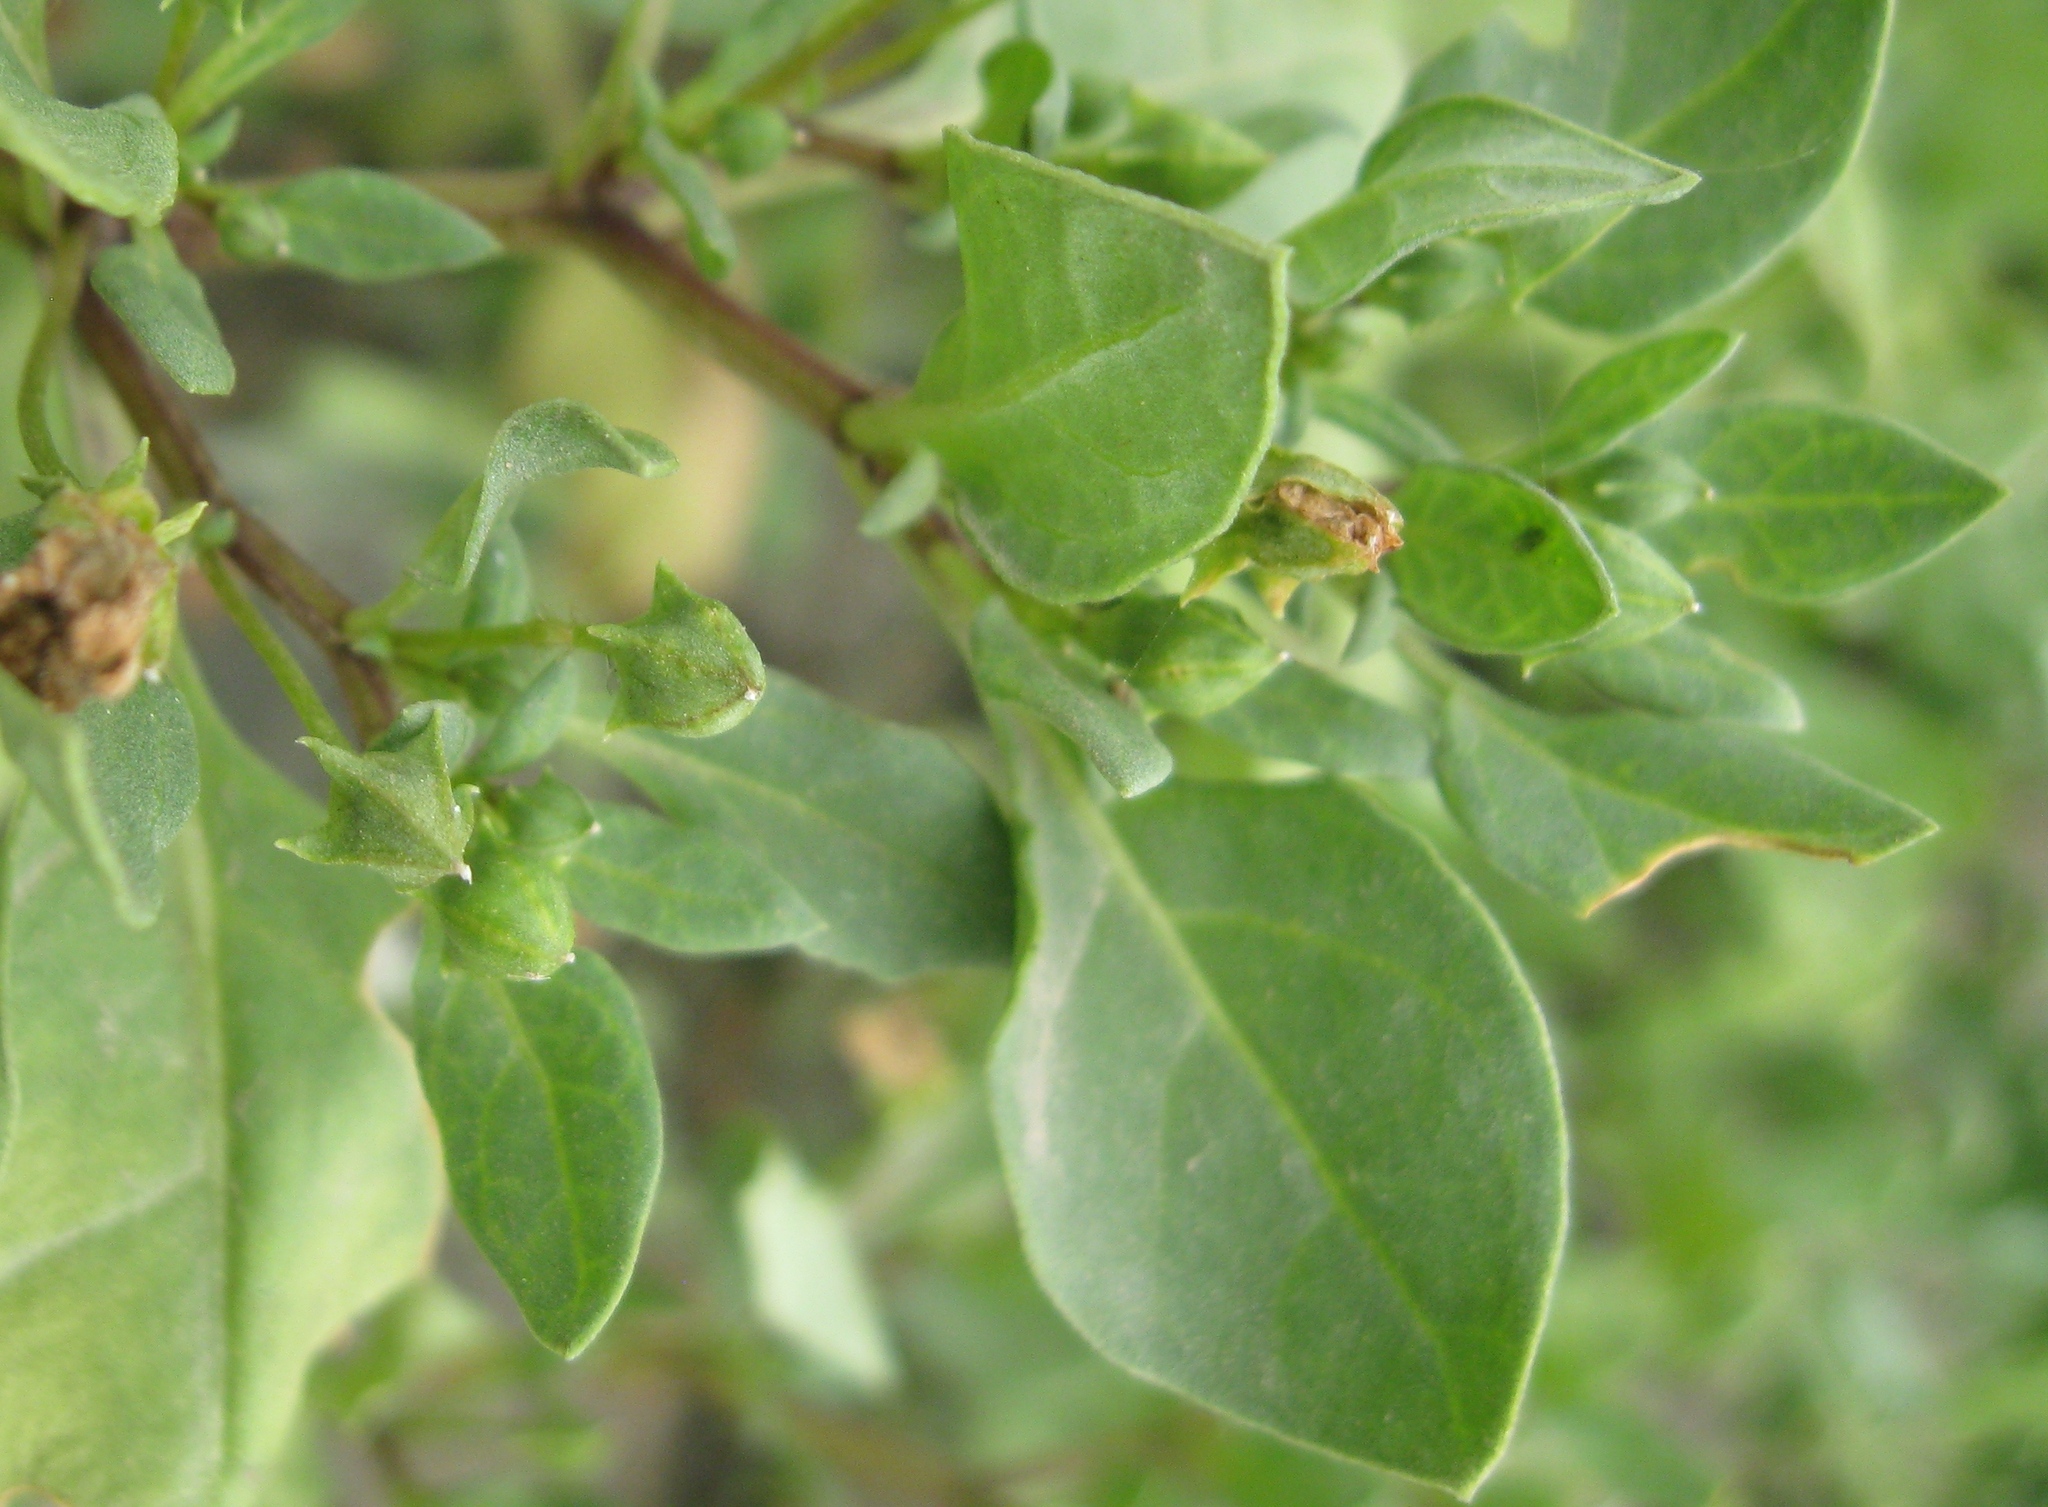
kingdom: Plantae
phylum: Tracheophyta
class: Magnoliopsida
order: Solanales
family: Solanaceae
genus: Nolana
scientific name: Nolana humifusa
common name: Trailing chilean-bellflower
